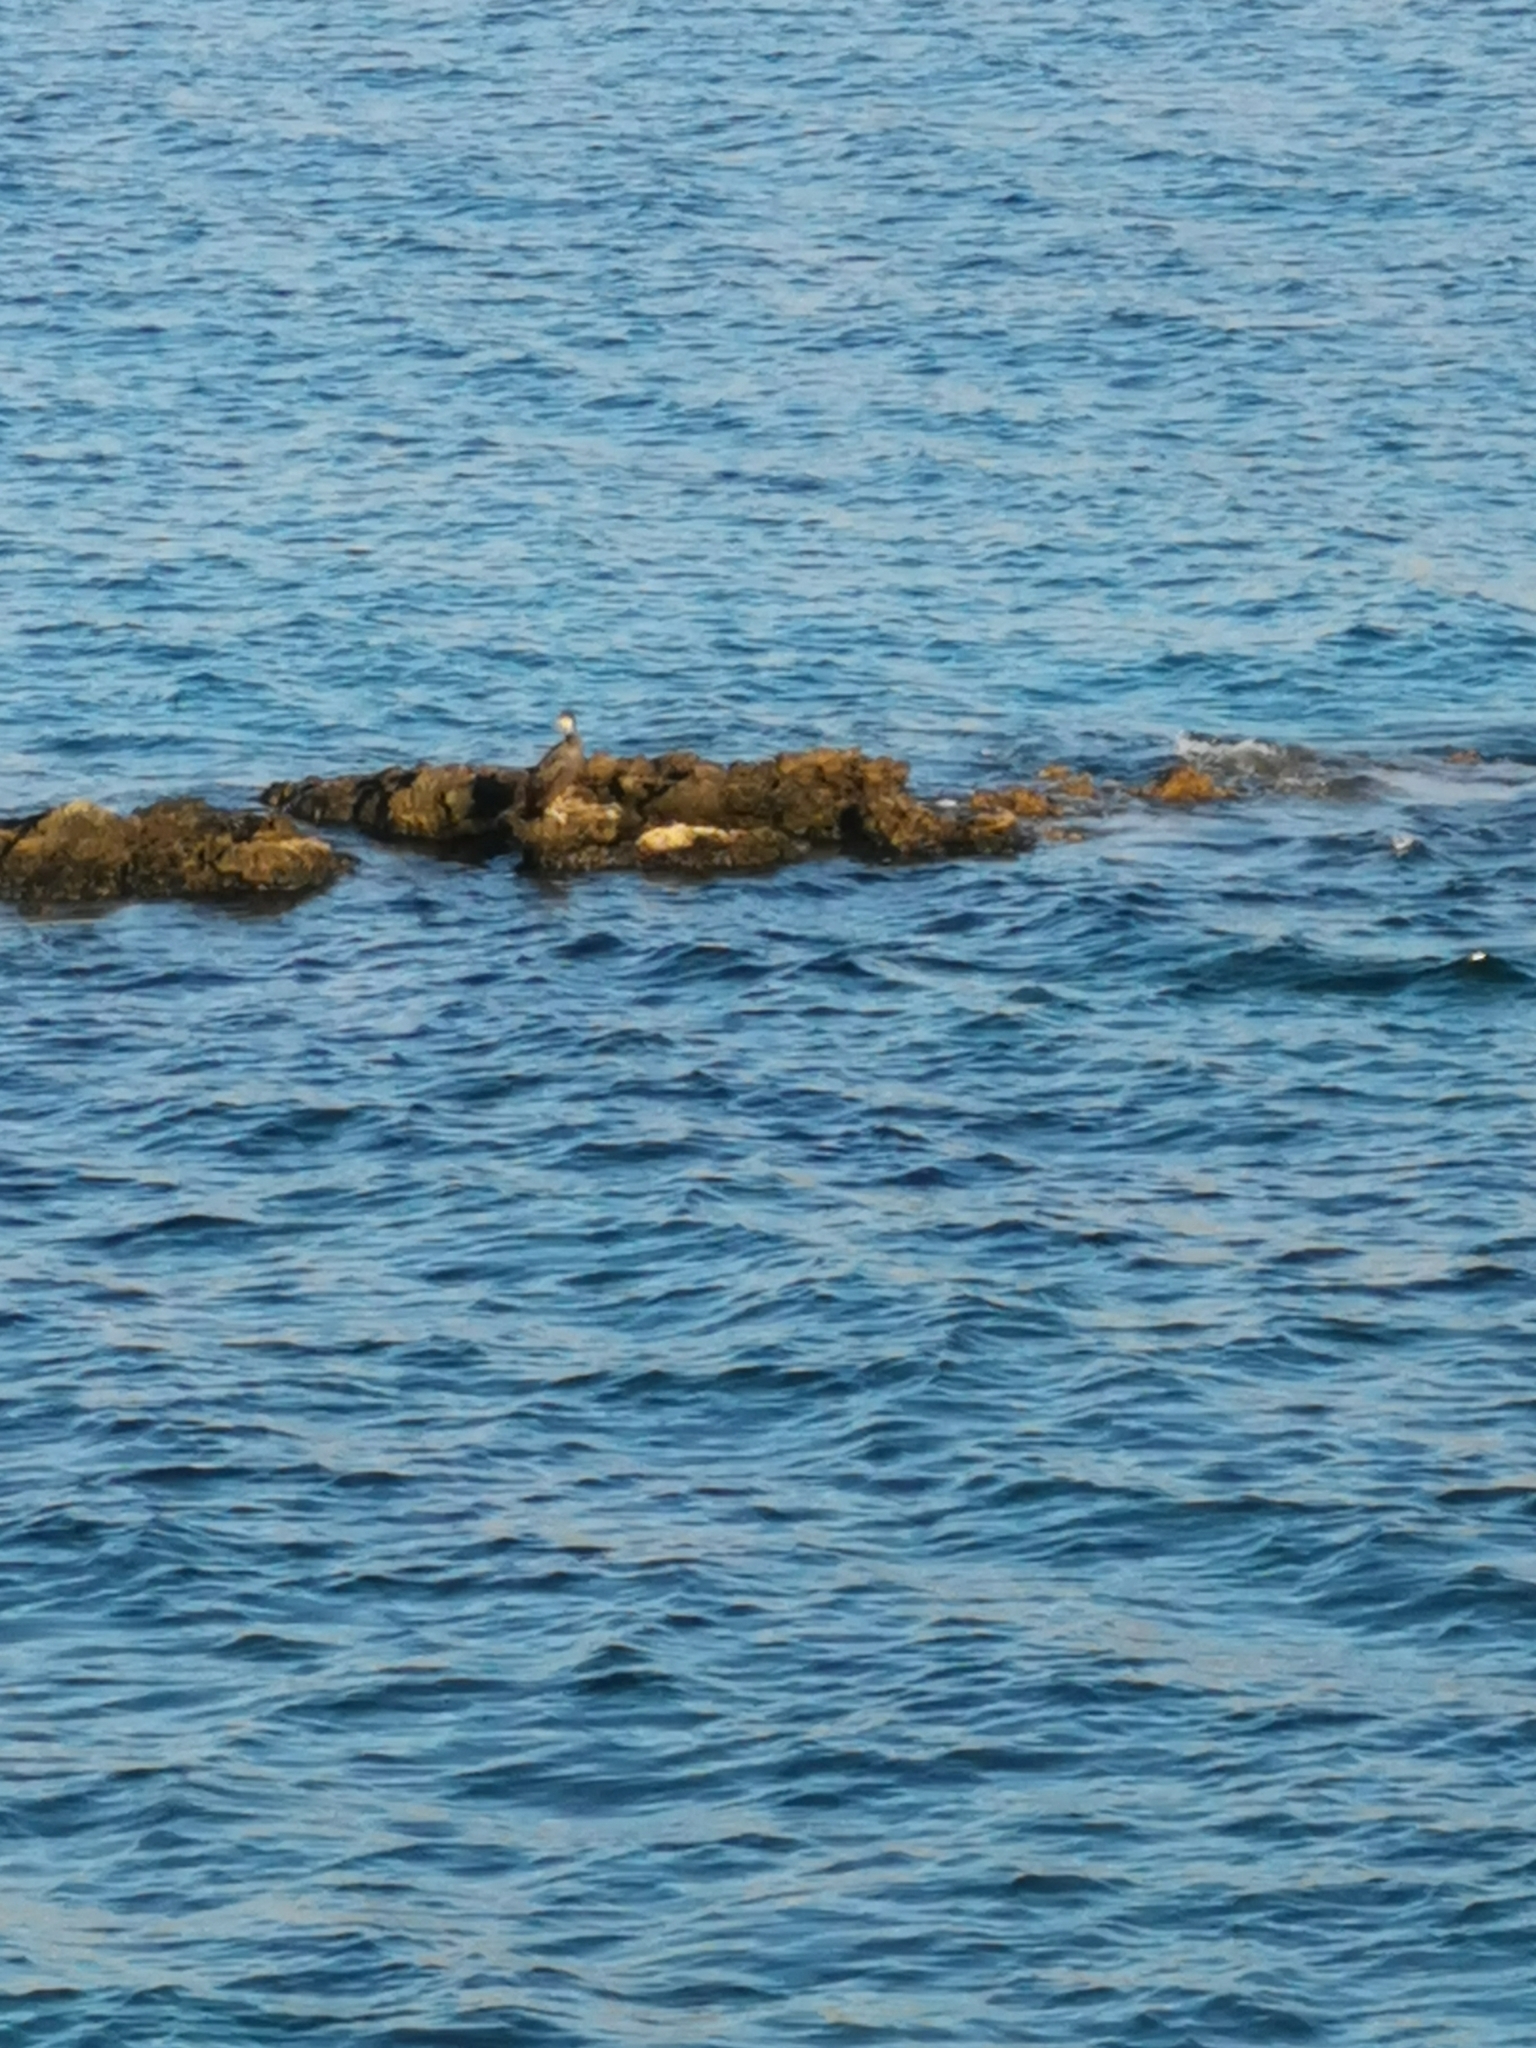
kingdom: Animalia
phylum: Chordata
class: Aves
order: Suliformes
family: Phalacrocoracidae
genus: Phalacrocorax
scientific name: Phalacrocorax aristotelis
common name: European shag
